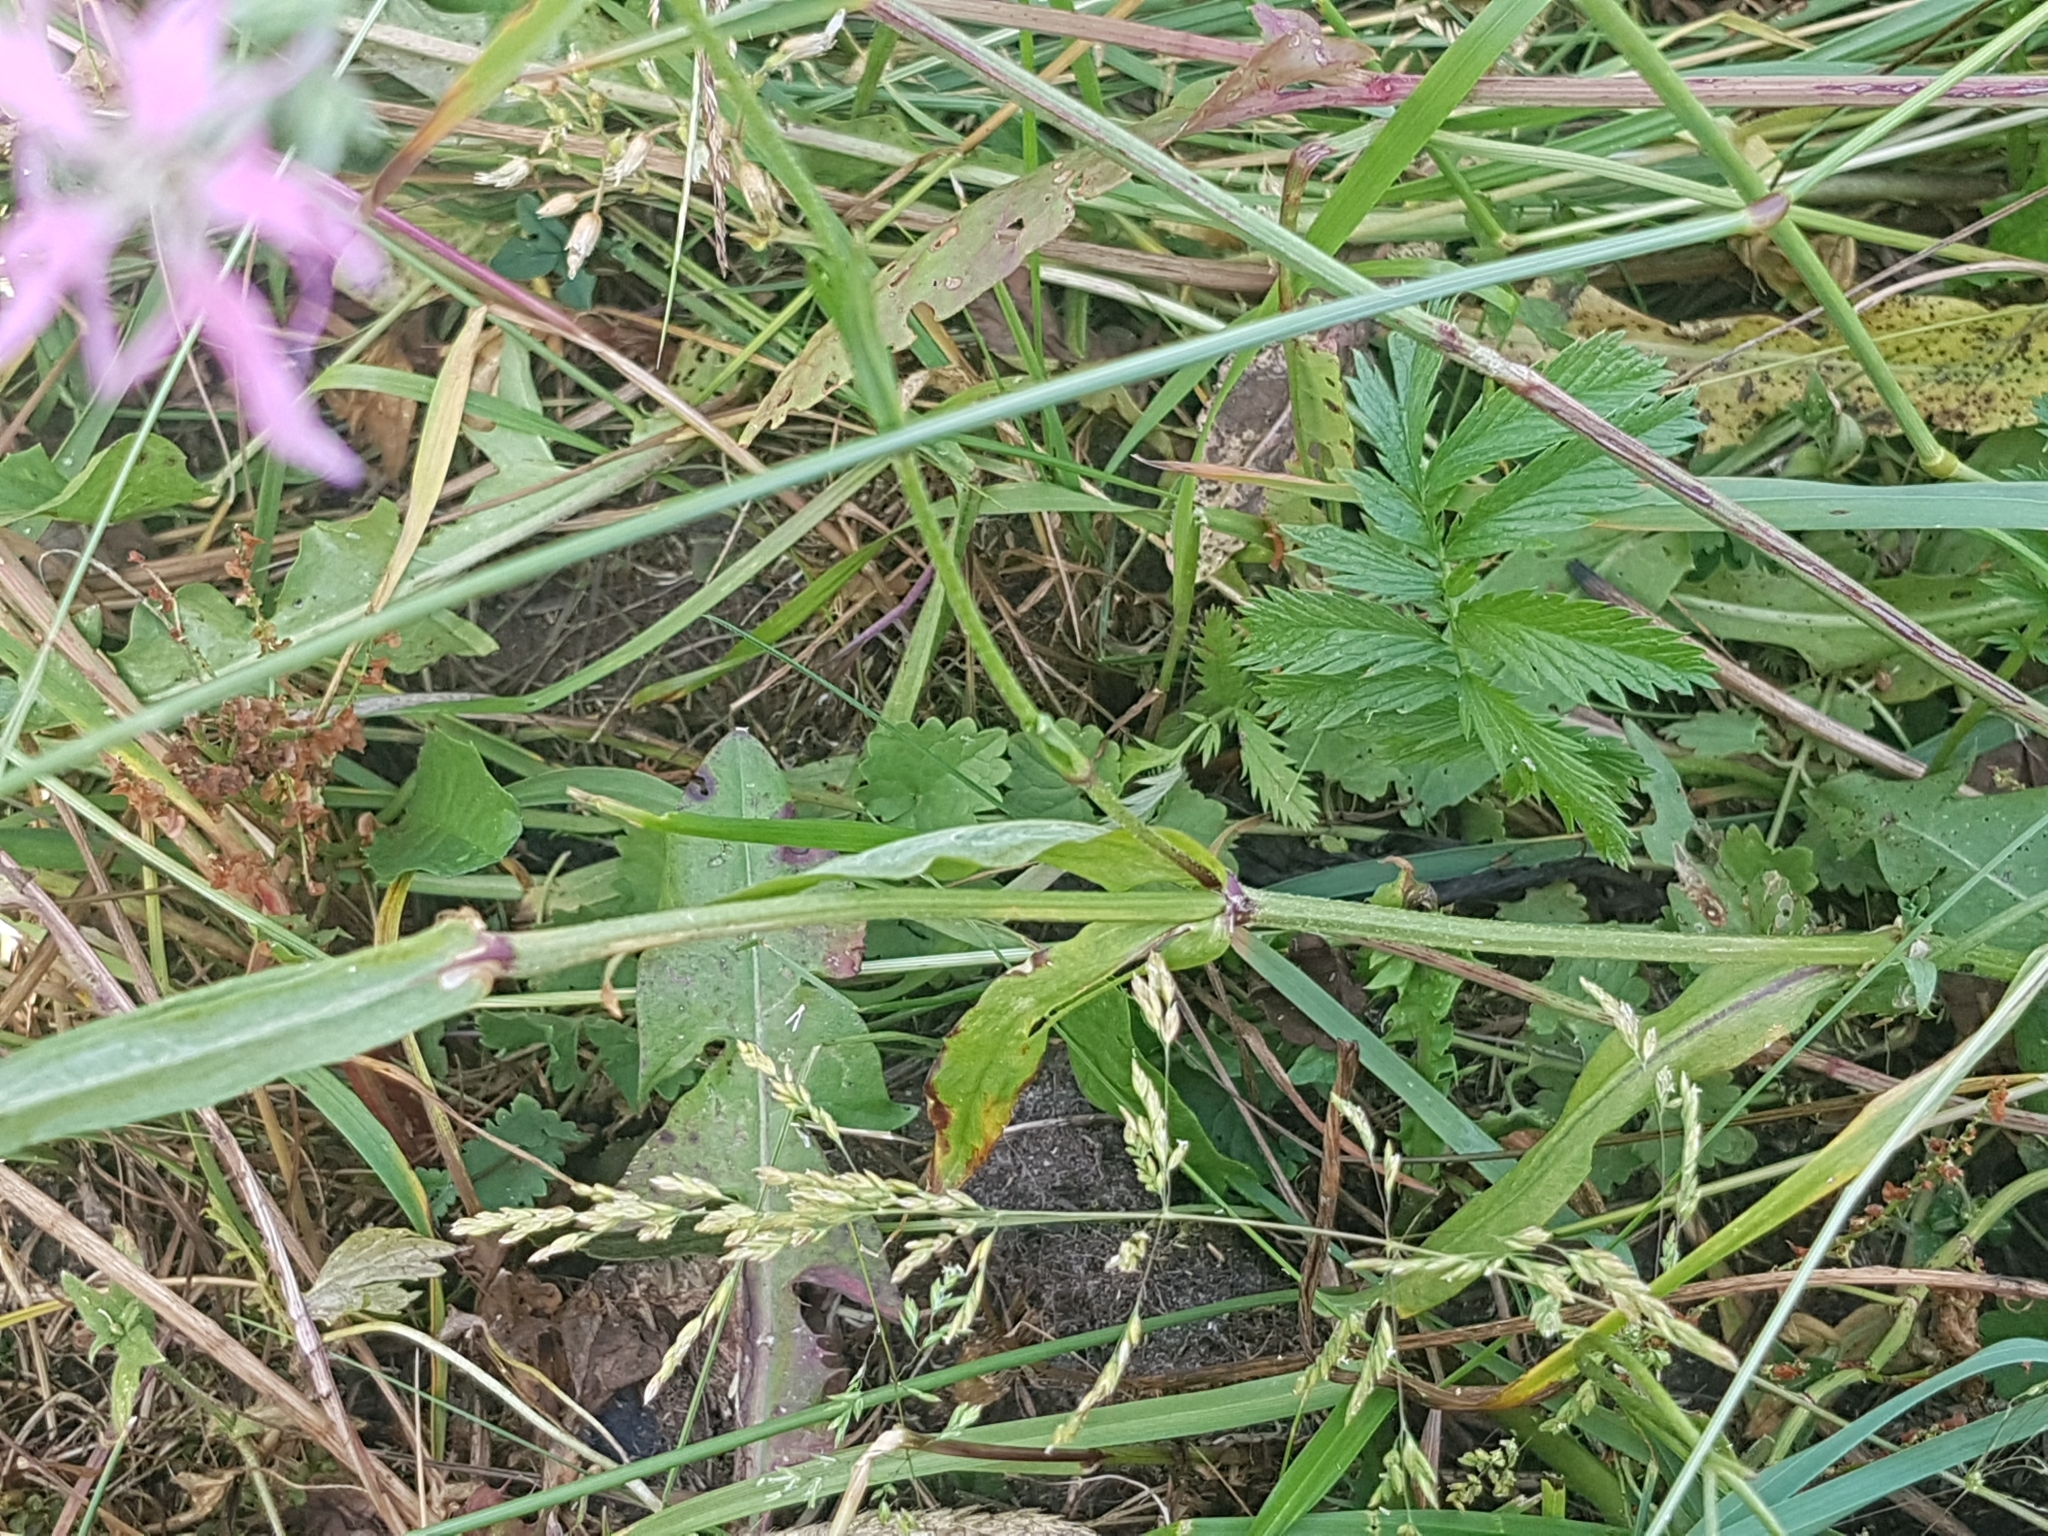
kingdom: Plantae
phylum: Tracheophyta
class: Magnoliopsida
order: Caryophyllales
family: Caryophyllaceae
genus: Silene
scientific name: Silene flos-cuculi
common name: Ragged-robin
